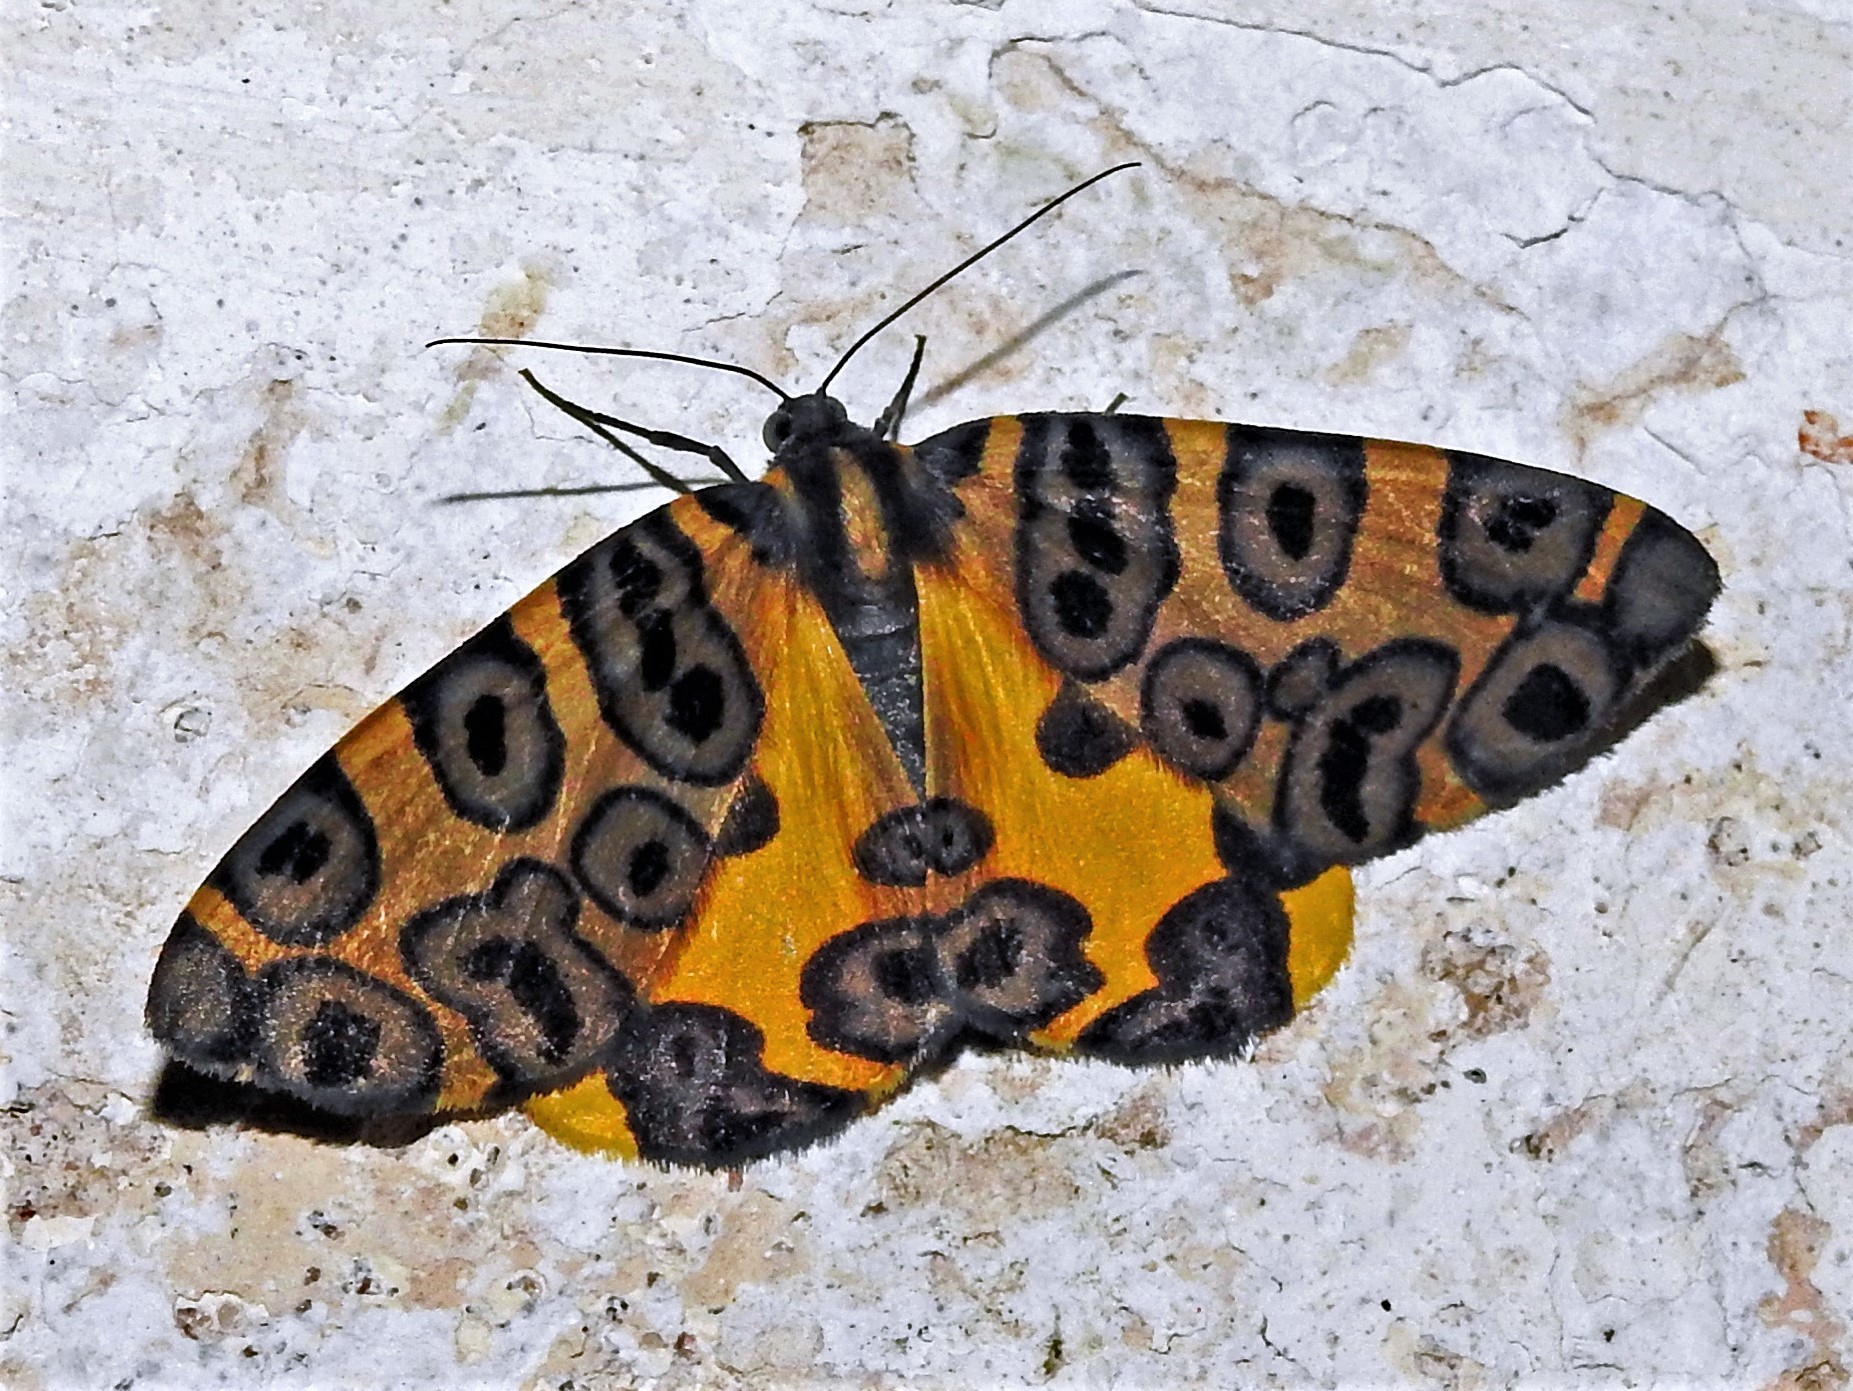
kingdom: Animalia
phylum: Arthropoda
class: Insecta
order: Lepidoptera
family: Geometridae
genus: Pantherodes
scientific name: Pantherodes pardalaria
